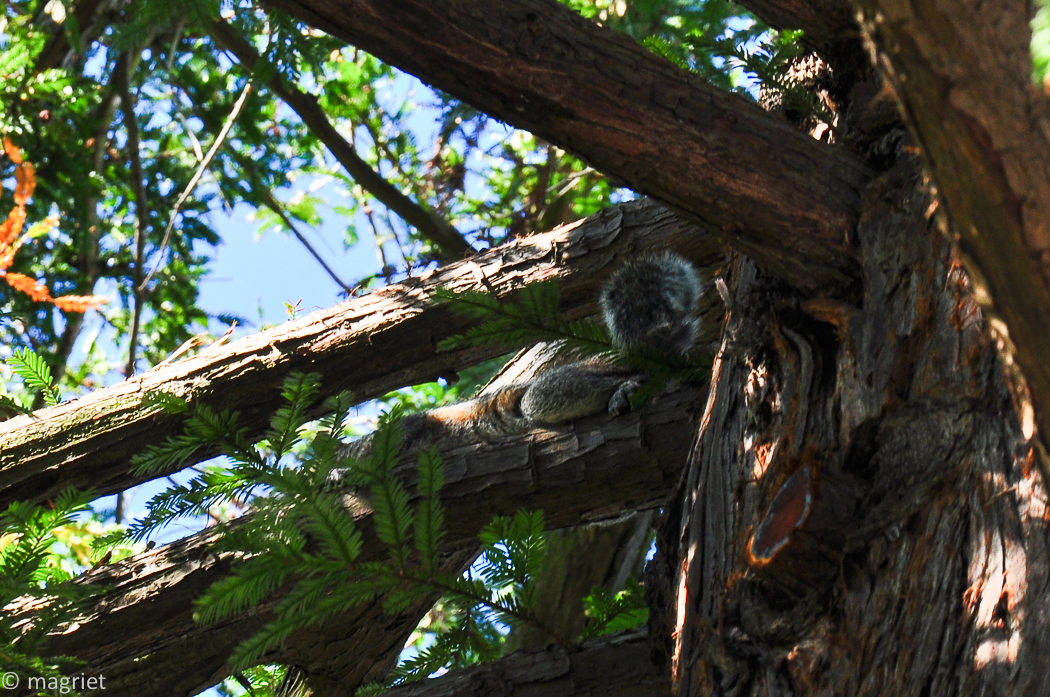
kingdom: Animalia
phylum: Chordata
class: Mammalia
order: Rodentia
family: Sciuridae
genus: Sciurus
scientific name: Sciurus carolinensis
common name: Eastern gray squirrel
